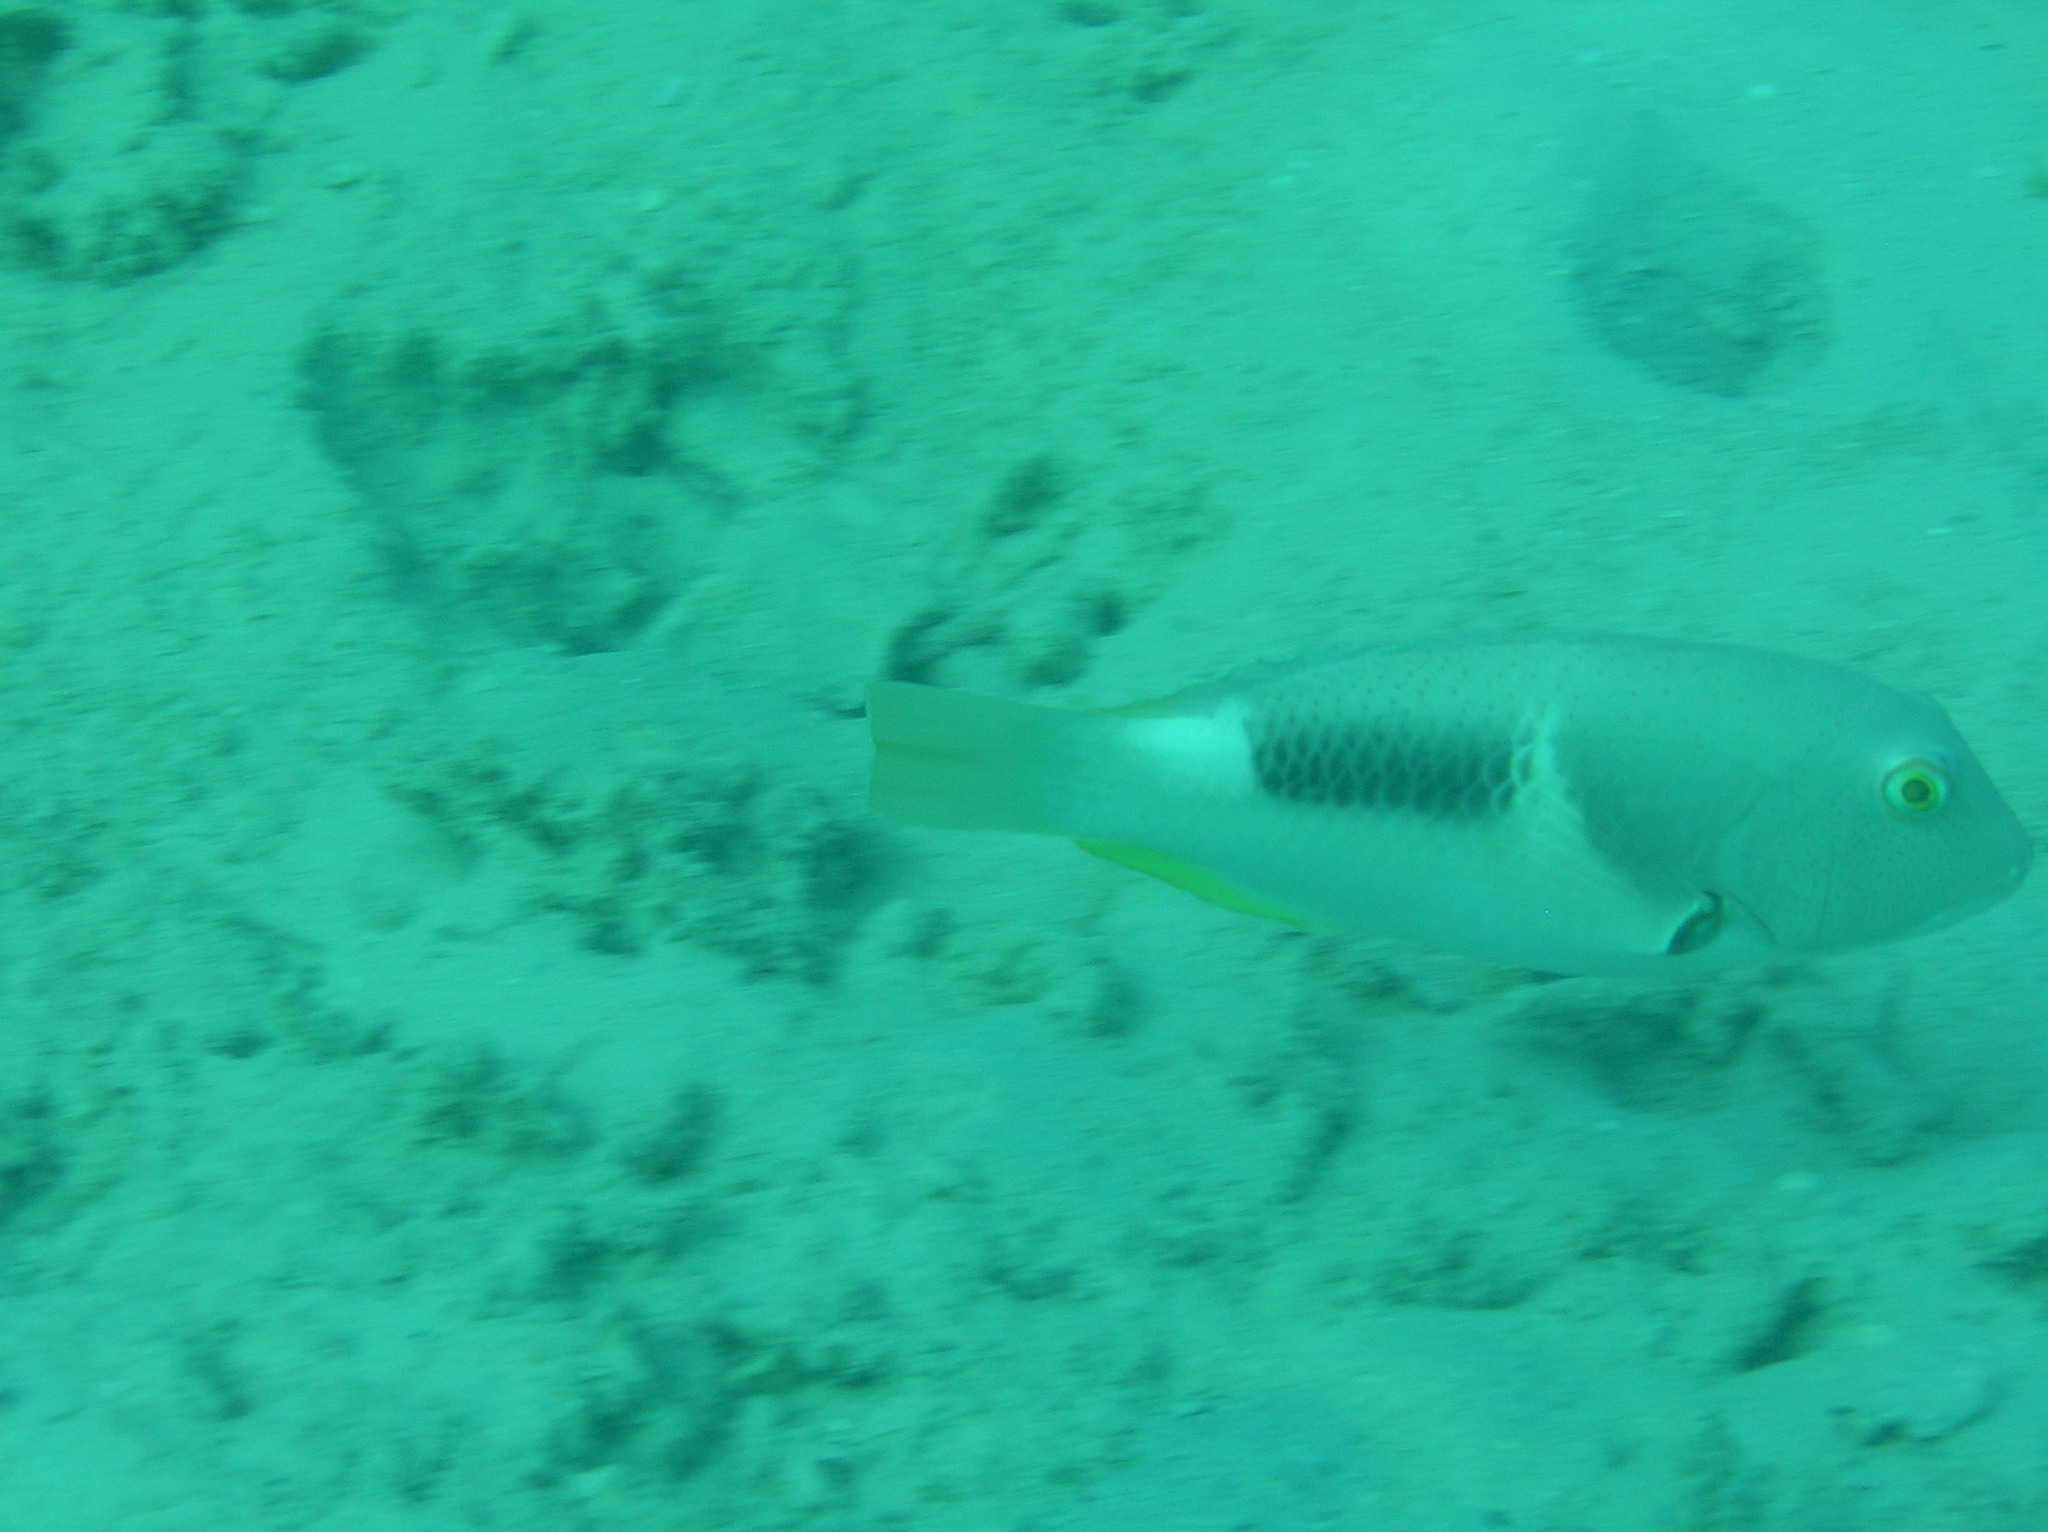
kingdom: Animalia
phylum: Chordata
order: Perciformes
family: Labridae
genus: Choerodon
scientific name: Choerodon anchorago
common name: Anchor tuskfish
